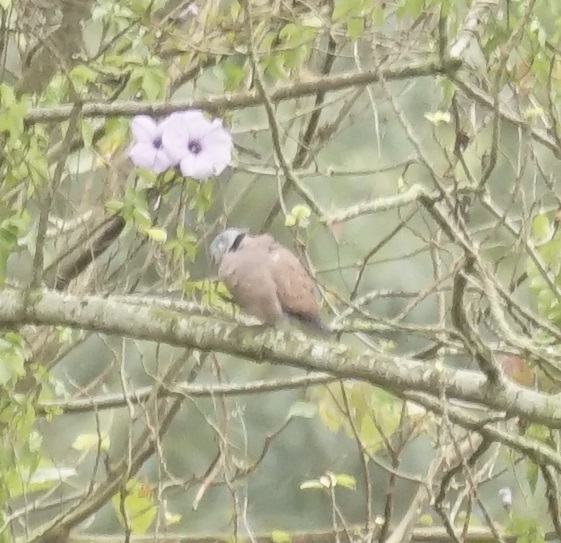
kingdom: Animalia
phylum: Chordata
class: Aves
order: Columbiformes
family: Columbidae
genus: Streptopelia
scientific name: Streptopelia tranquebarica
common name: Red turtle dove
